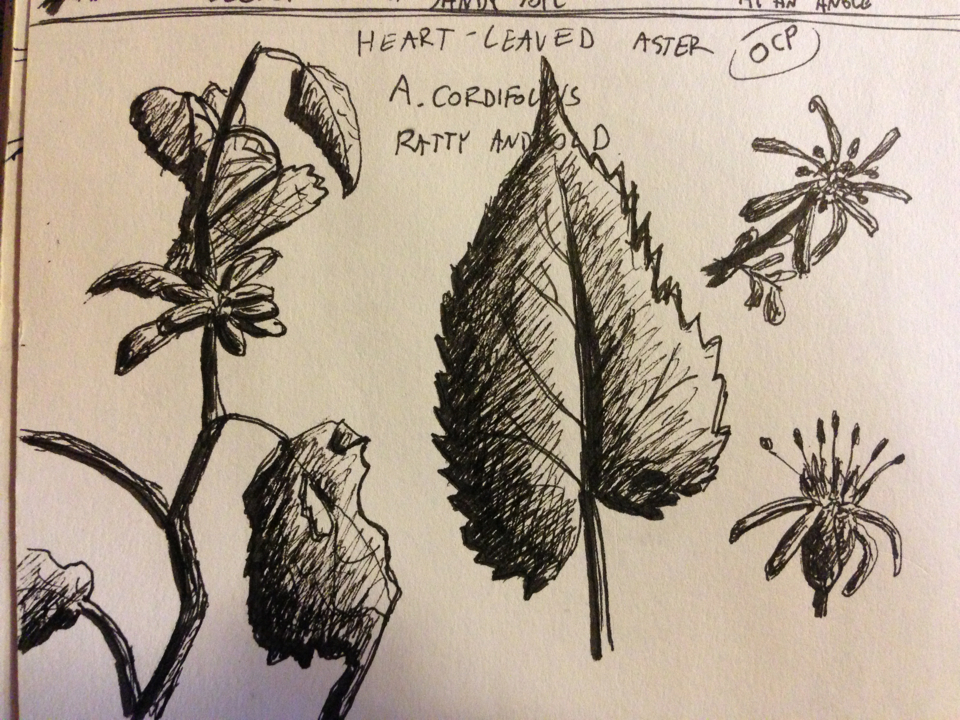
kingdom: Plantae
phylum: Tracheophyta
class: Magnoliopsida
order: Asterales
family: Asteraceae
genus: Symphyotrichum
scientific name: Symphyotrichum cordifolium
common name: Beeweed
